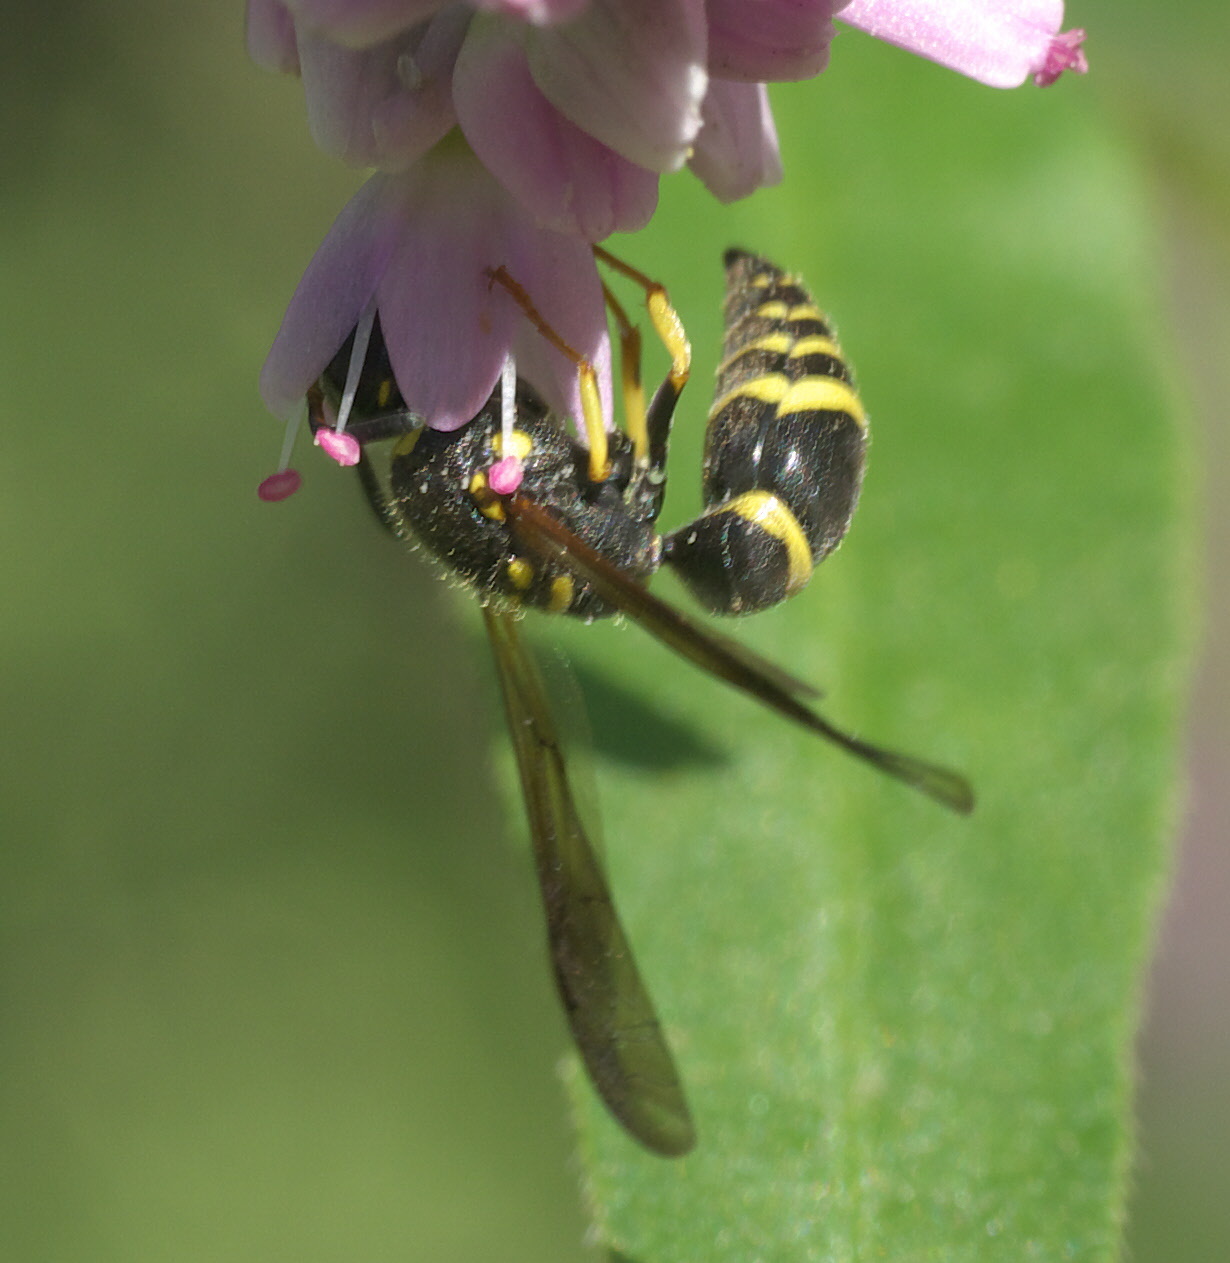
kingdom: Animalia
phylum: Arthropoda
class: Insecta
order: Hymenoptera
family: Vespidae
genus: Ancistrocerus
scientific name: Ancistrocerus adiabatus
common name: Bramble mason wasp
